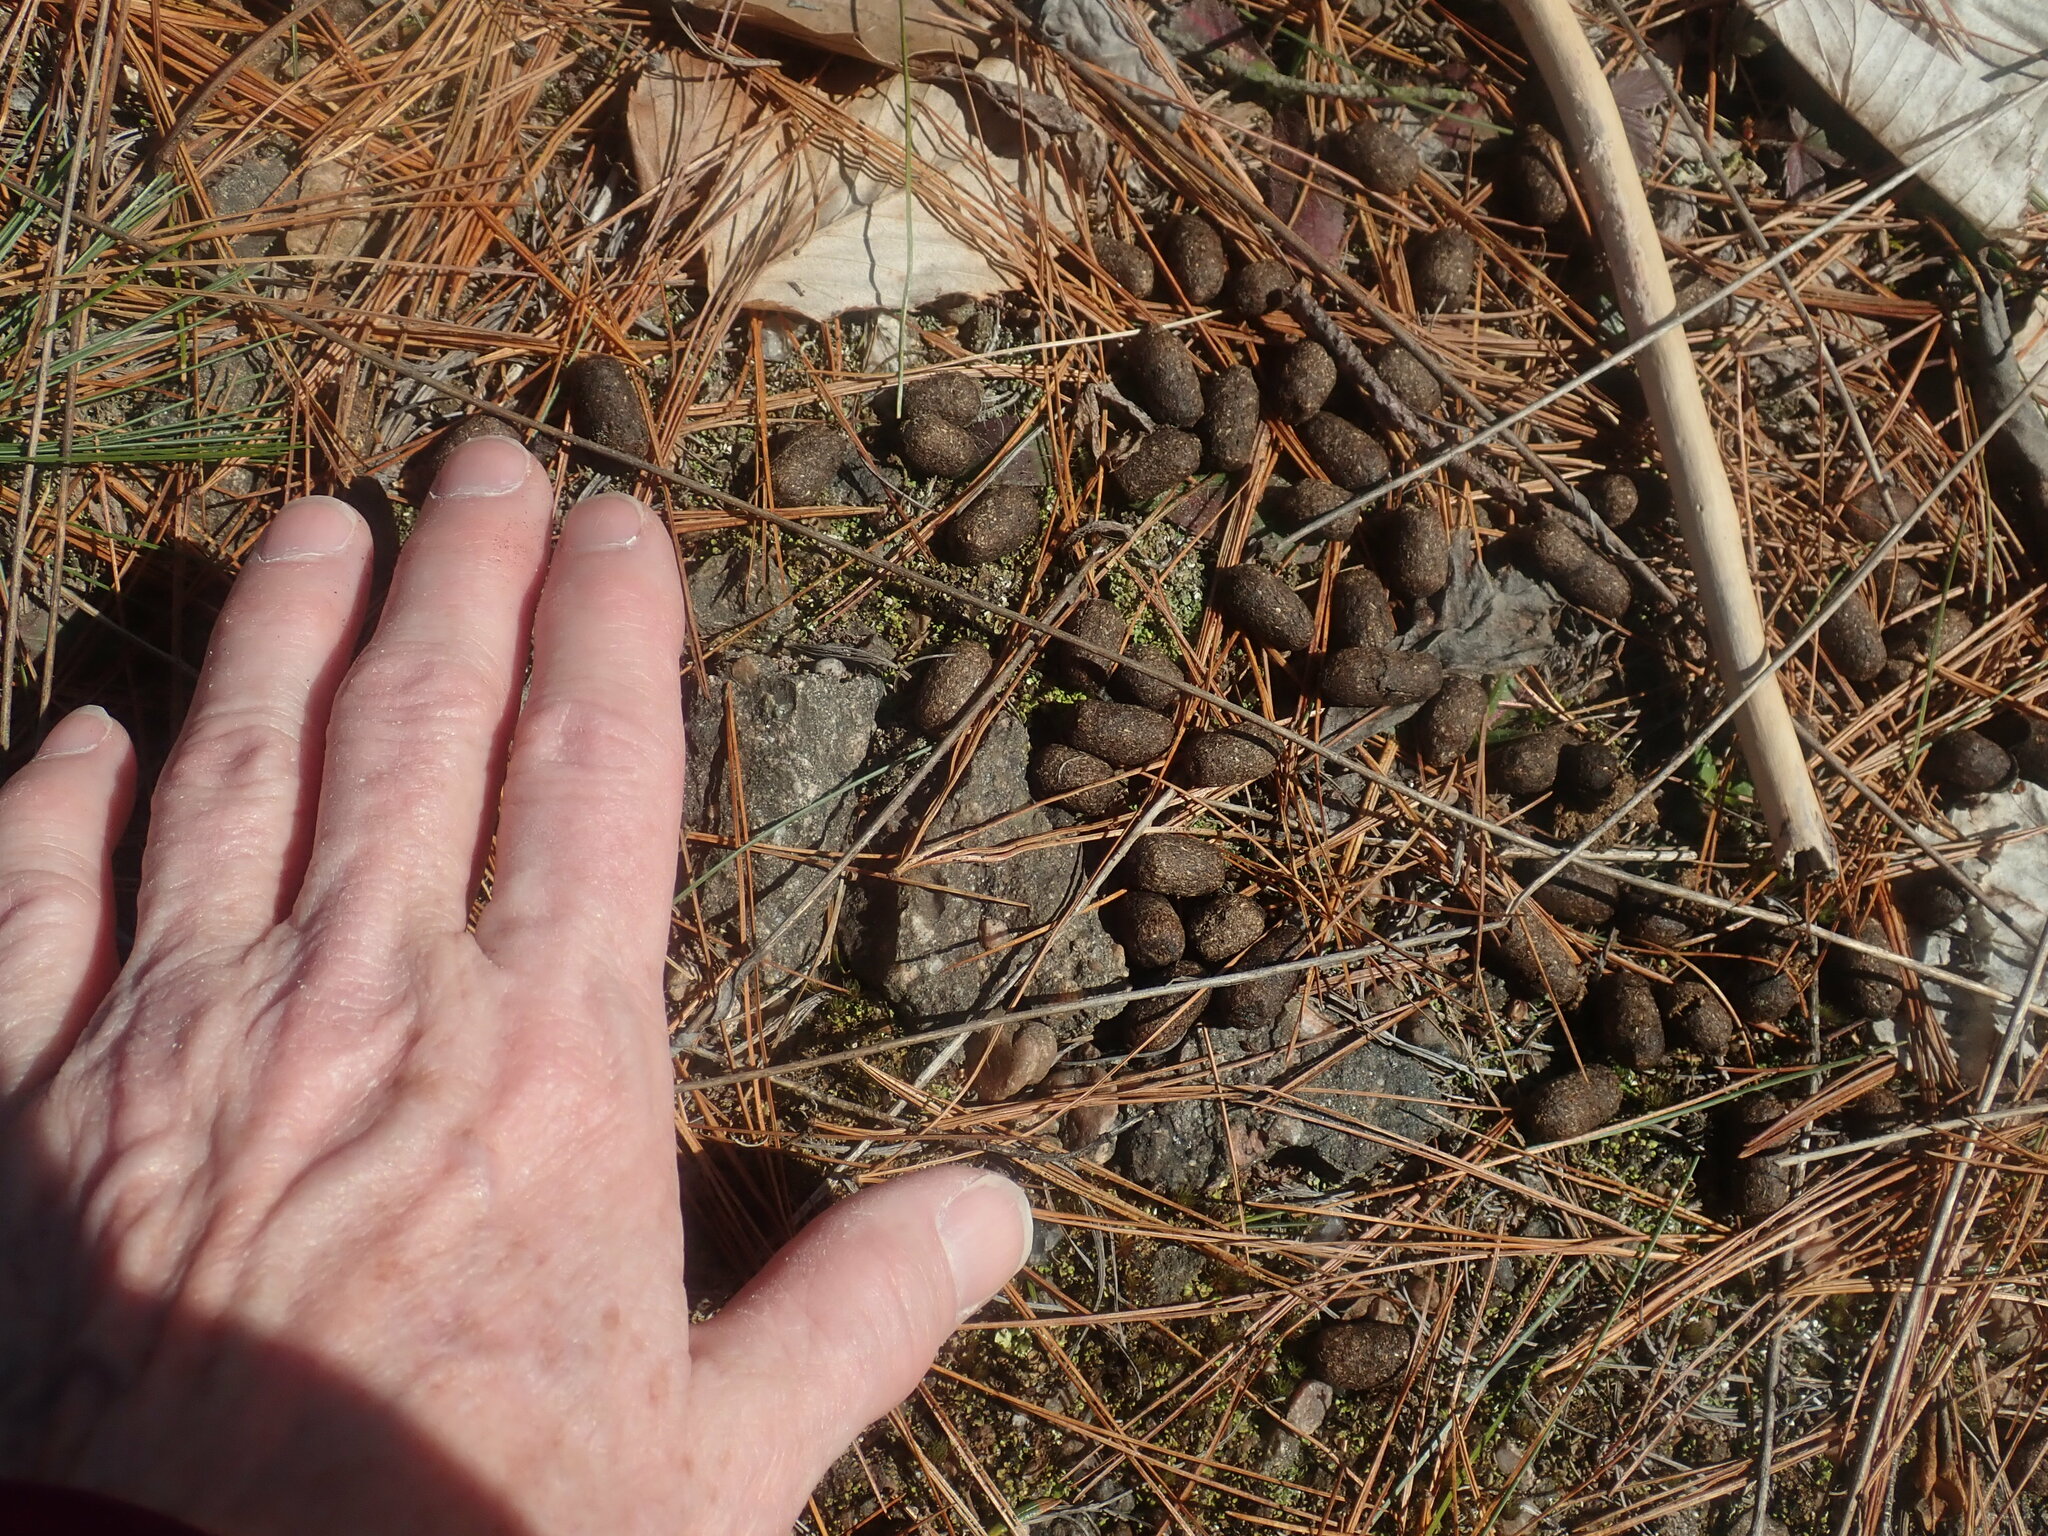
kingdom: Animalia
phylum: Chordata
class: Mammalia
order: Artiodactyla
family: Cervidae
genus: Odocoileus
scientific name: Odocoileus virginianus
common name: White-tailed deer
